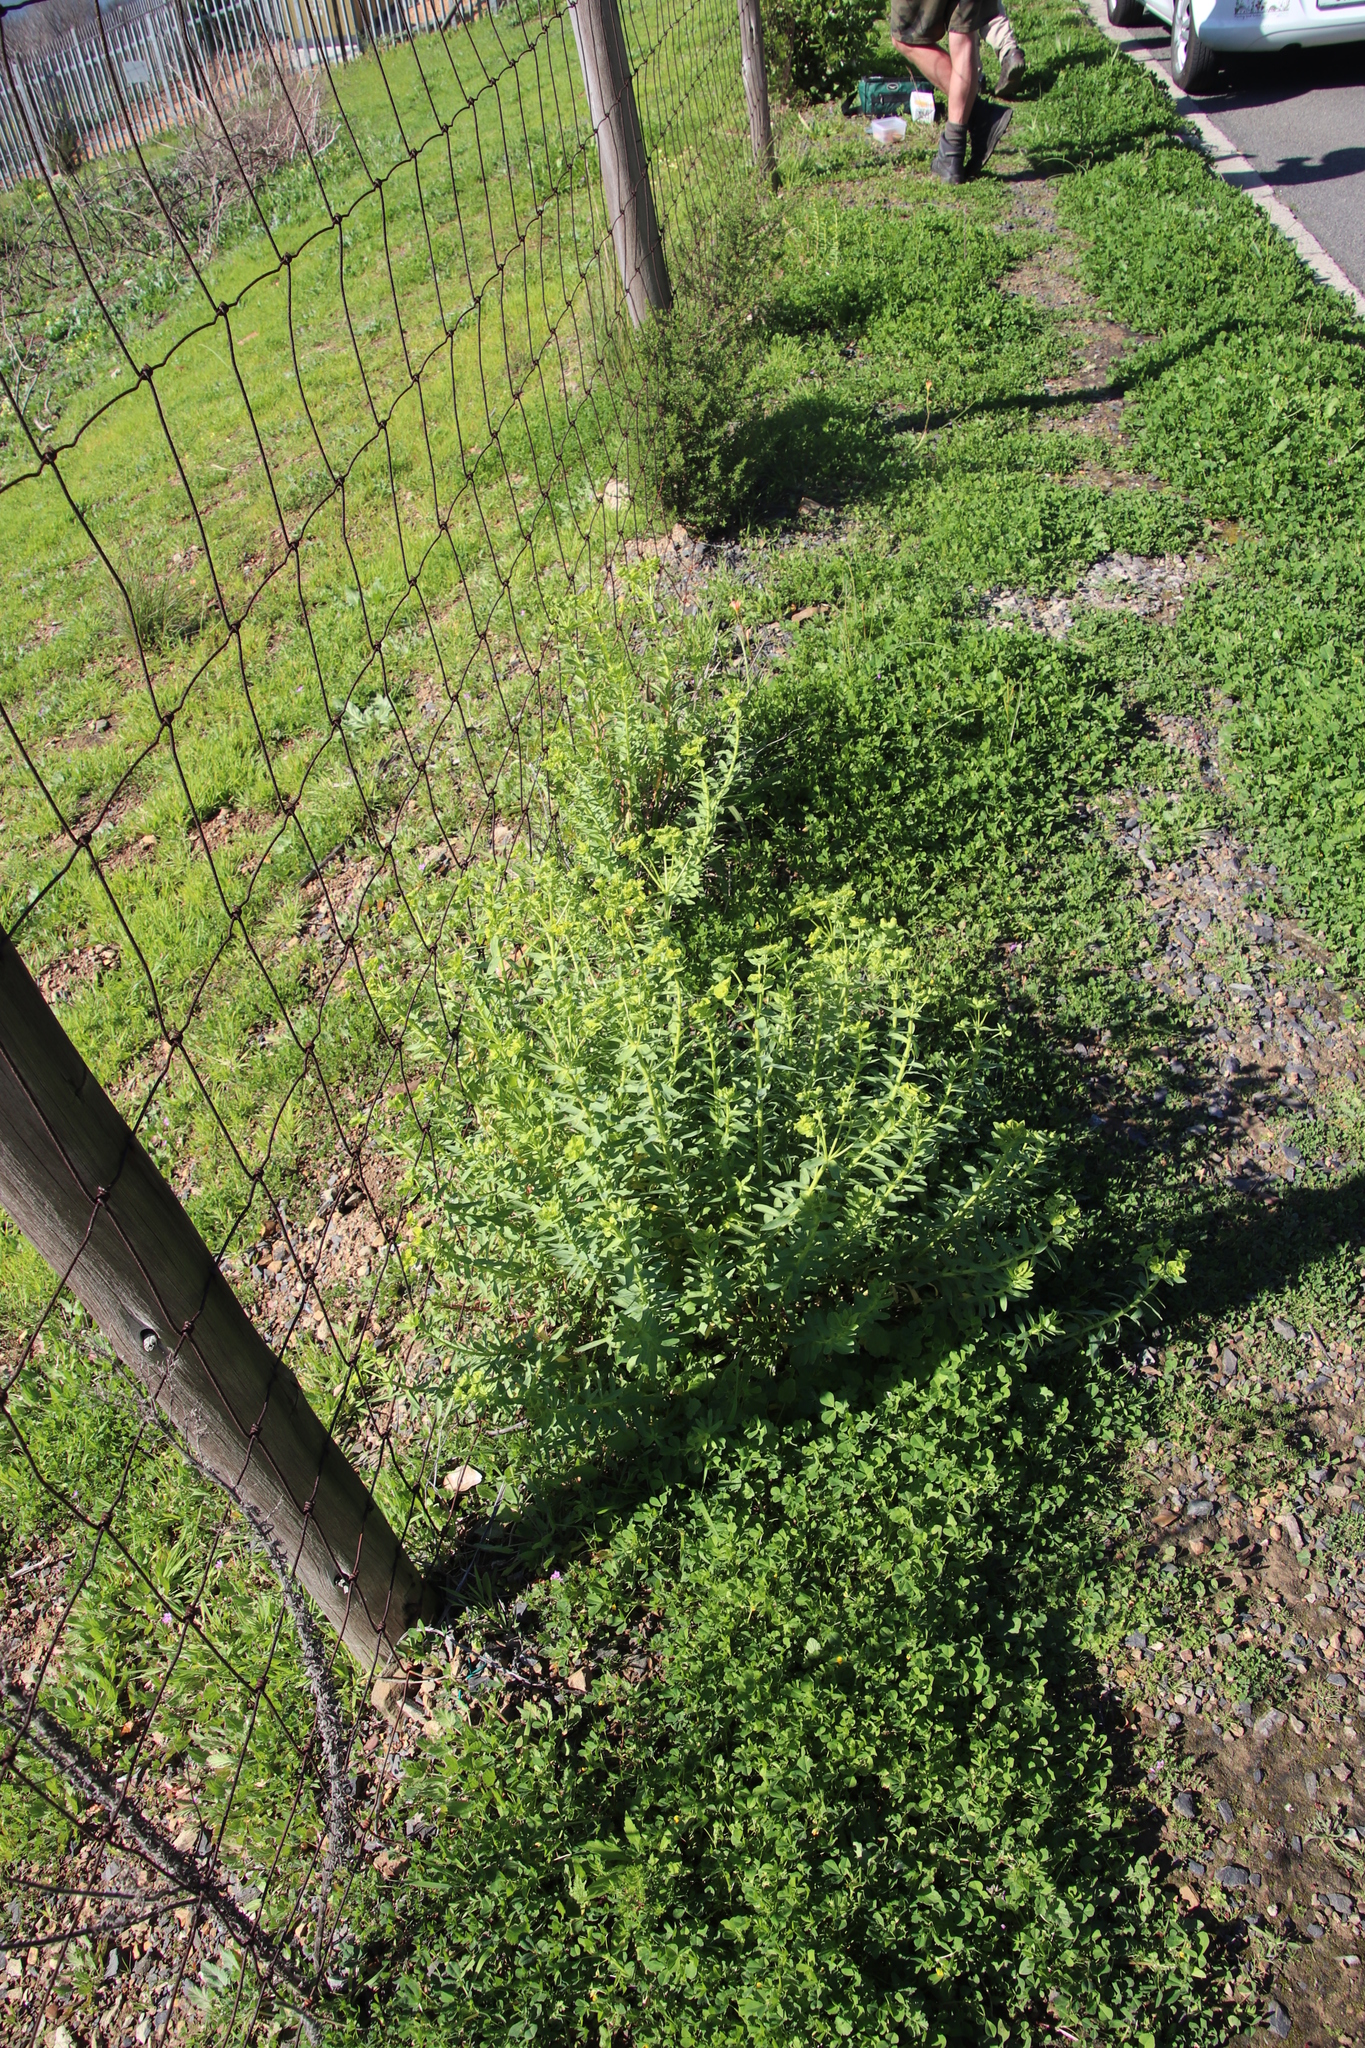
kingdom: Plantae
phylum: Tracheophyta
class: Magnoliopsida
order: Malpighiales
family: Euphorbiaceae
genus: Euphorbia
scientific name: Euphorbia terracina
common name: Geraldton carnation weed
